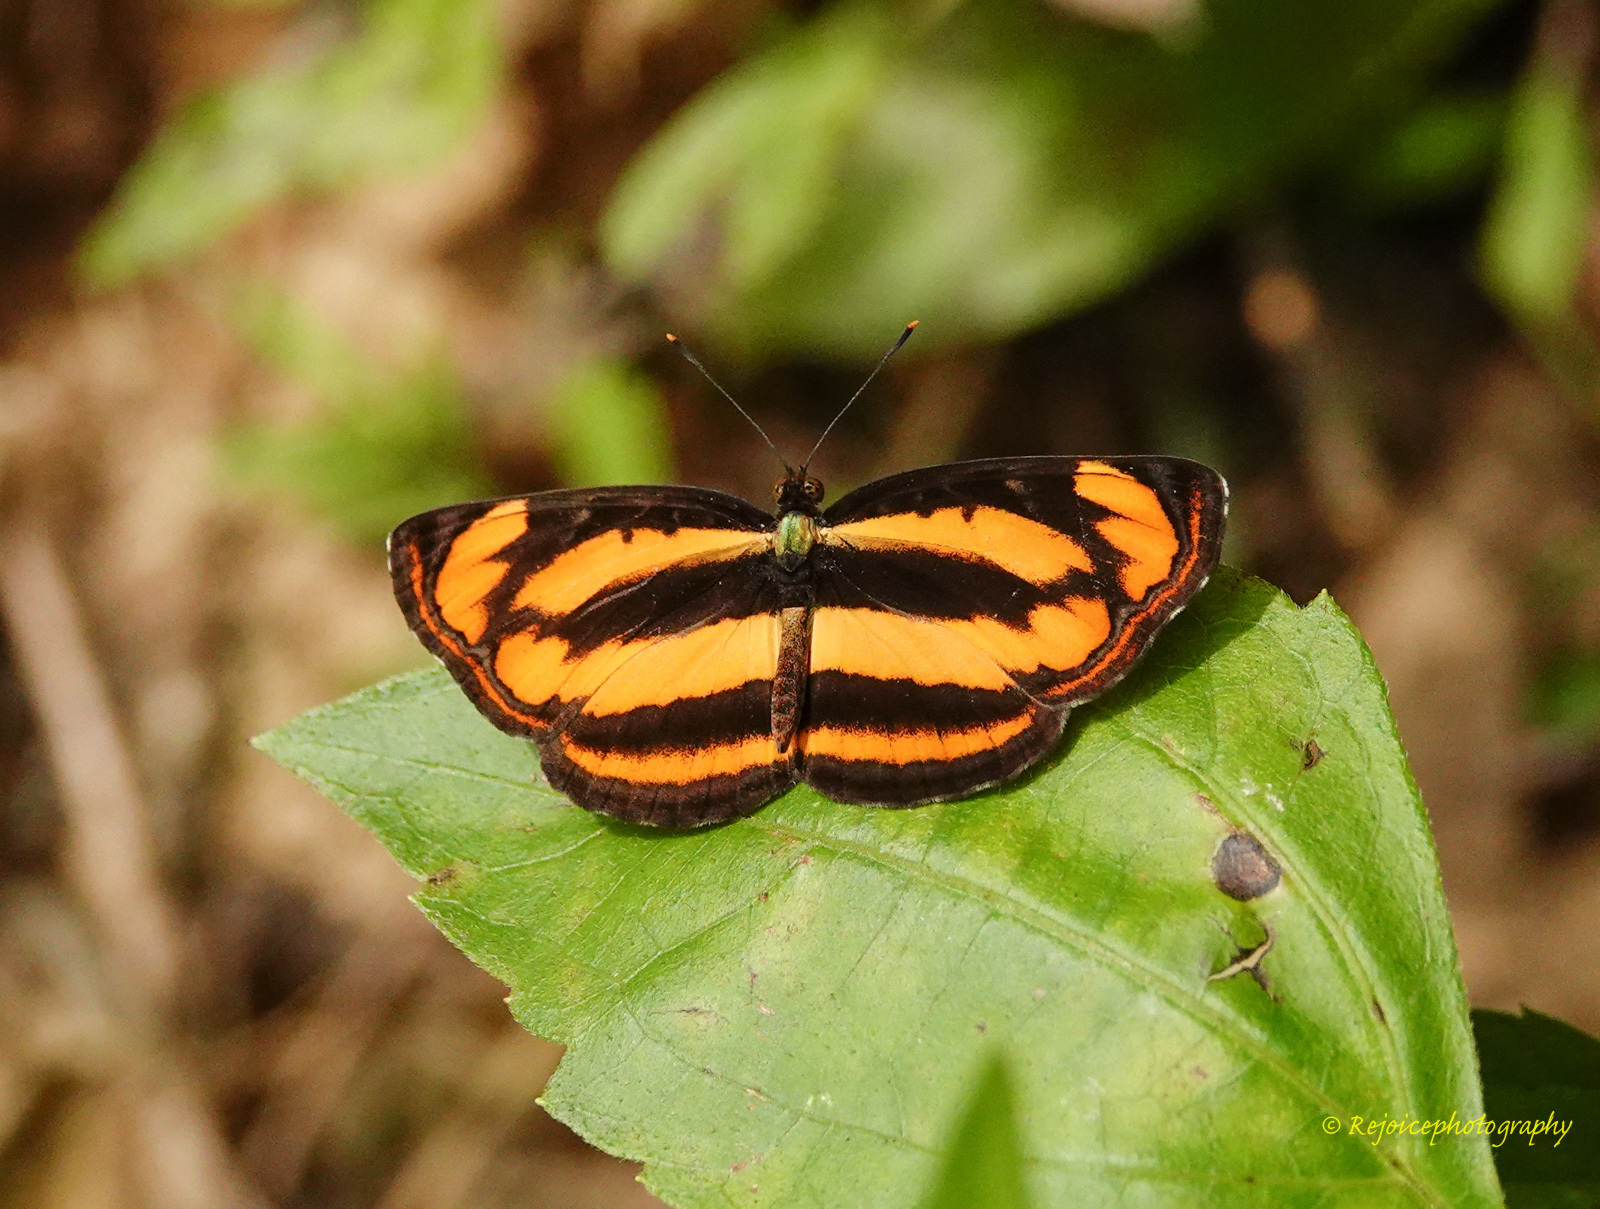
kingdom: Animalia
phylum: Arthropoda
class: Insecta
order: Lepidoptera
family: Nymphalidae
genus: Pantoporia
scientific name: Pantoporia hordonia
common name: Common lascar
